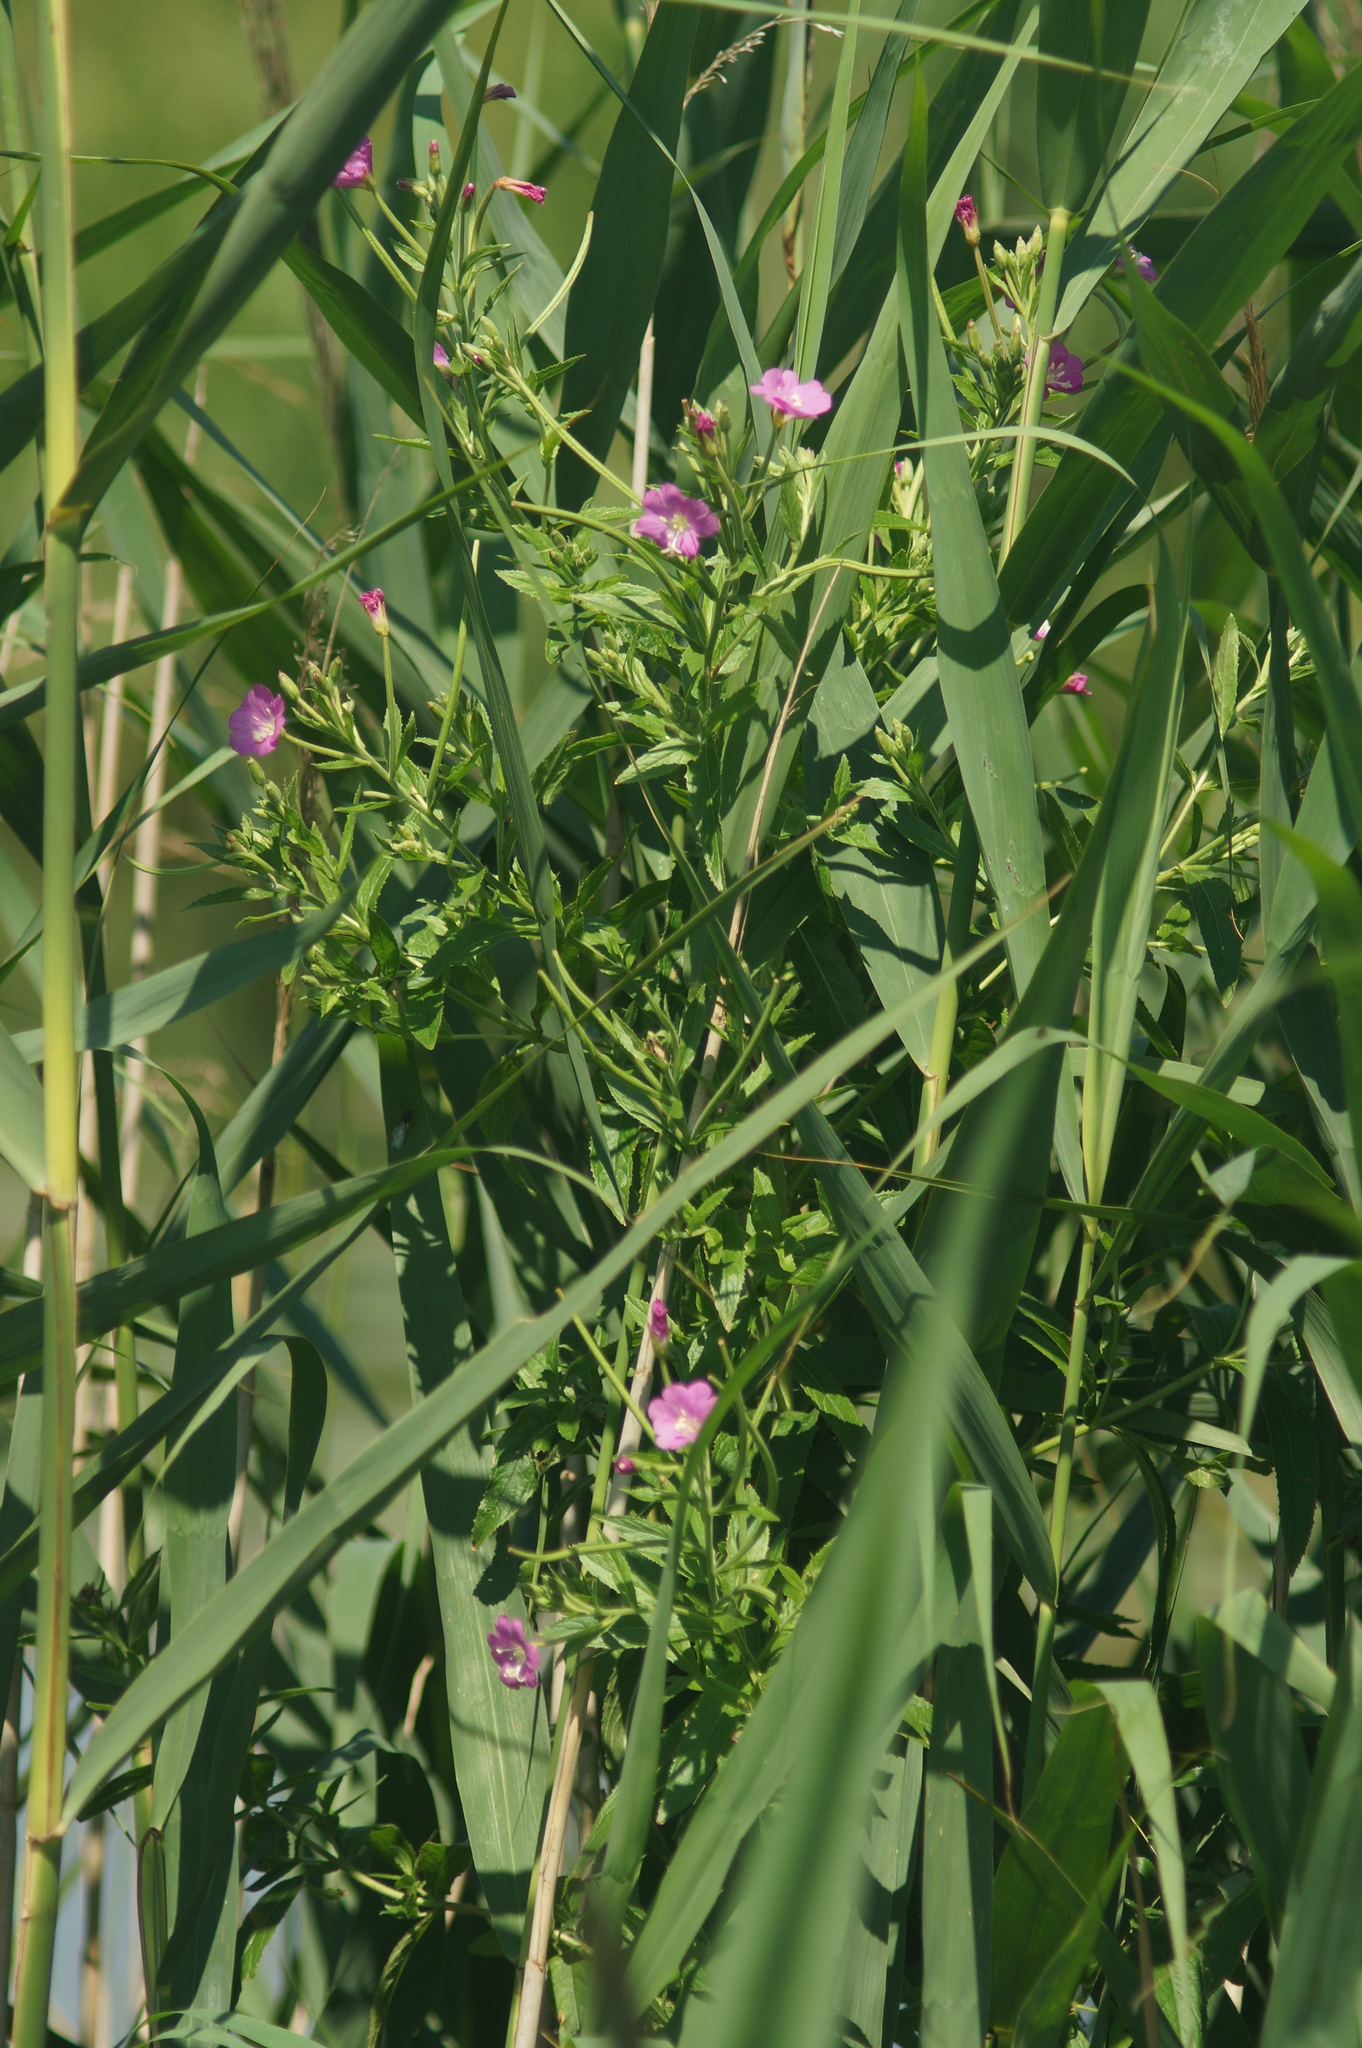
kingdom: Plantae
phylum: Tracheophyta
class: Magnoliopsida
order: Myrtales
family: Onagraceae
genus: Epilobium
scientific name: Epilobium hirsutum
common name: Great willowherb
